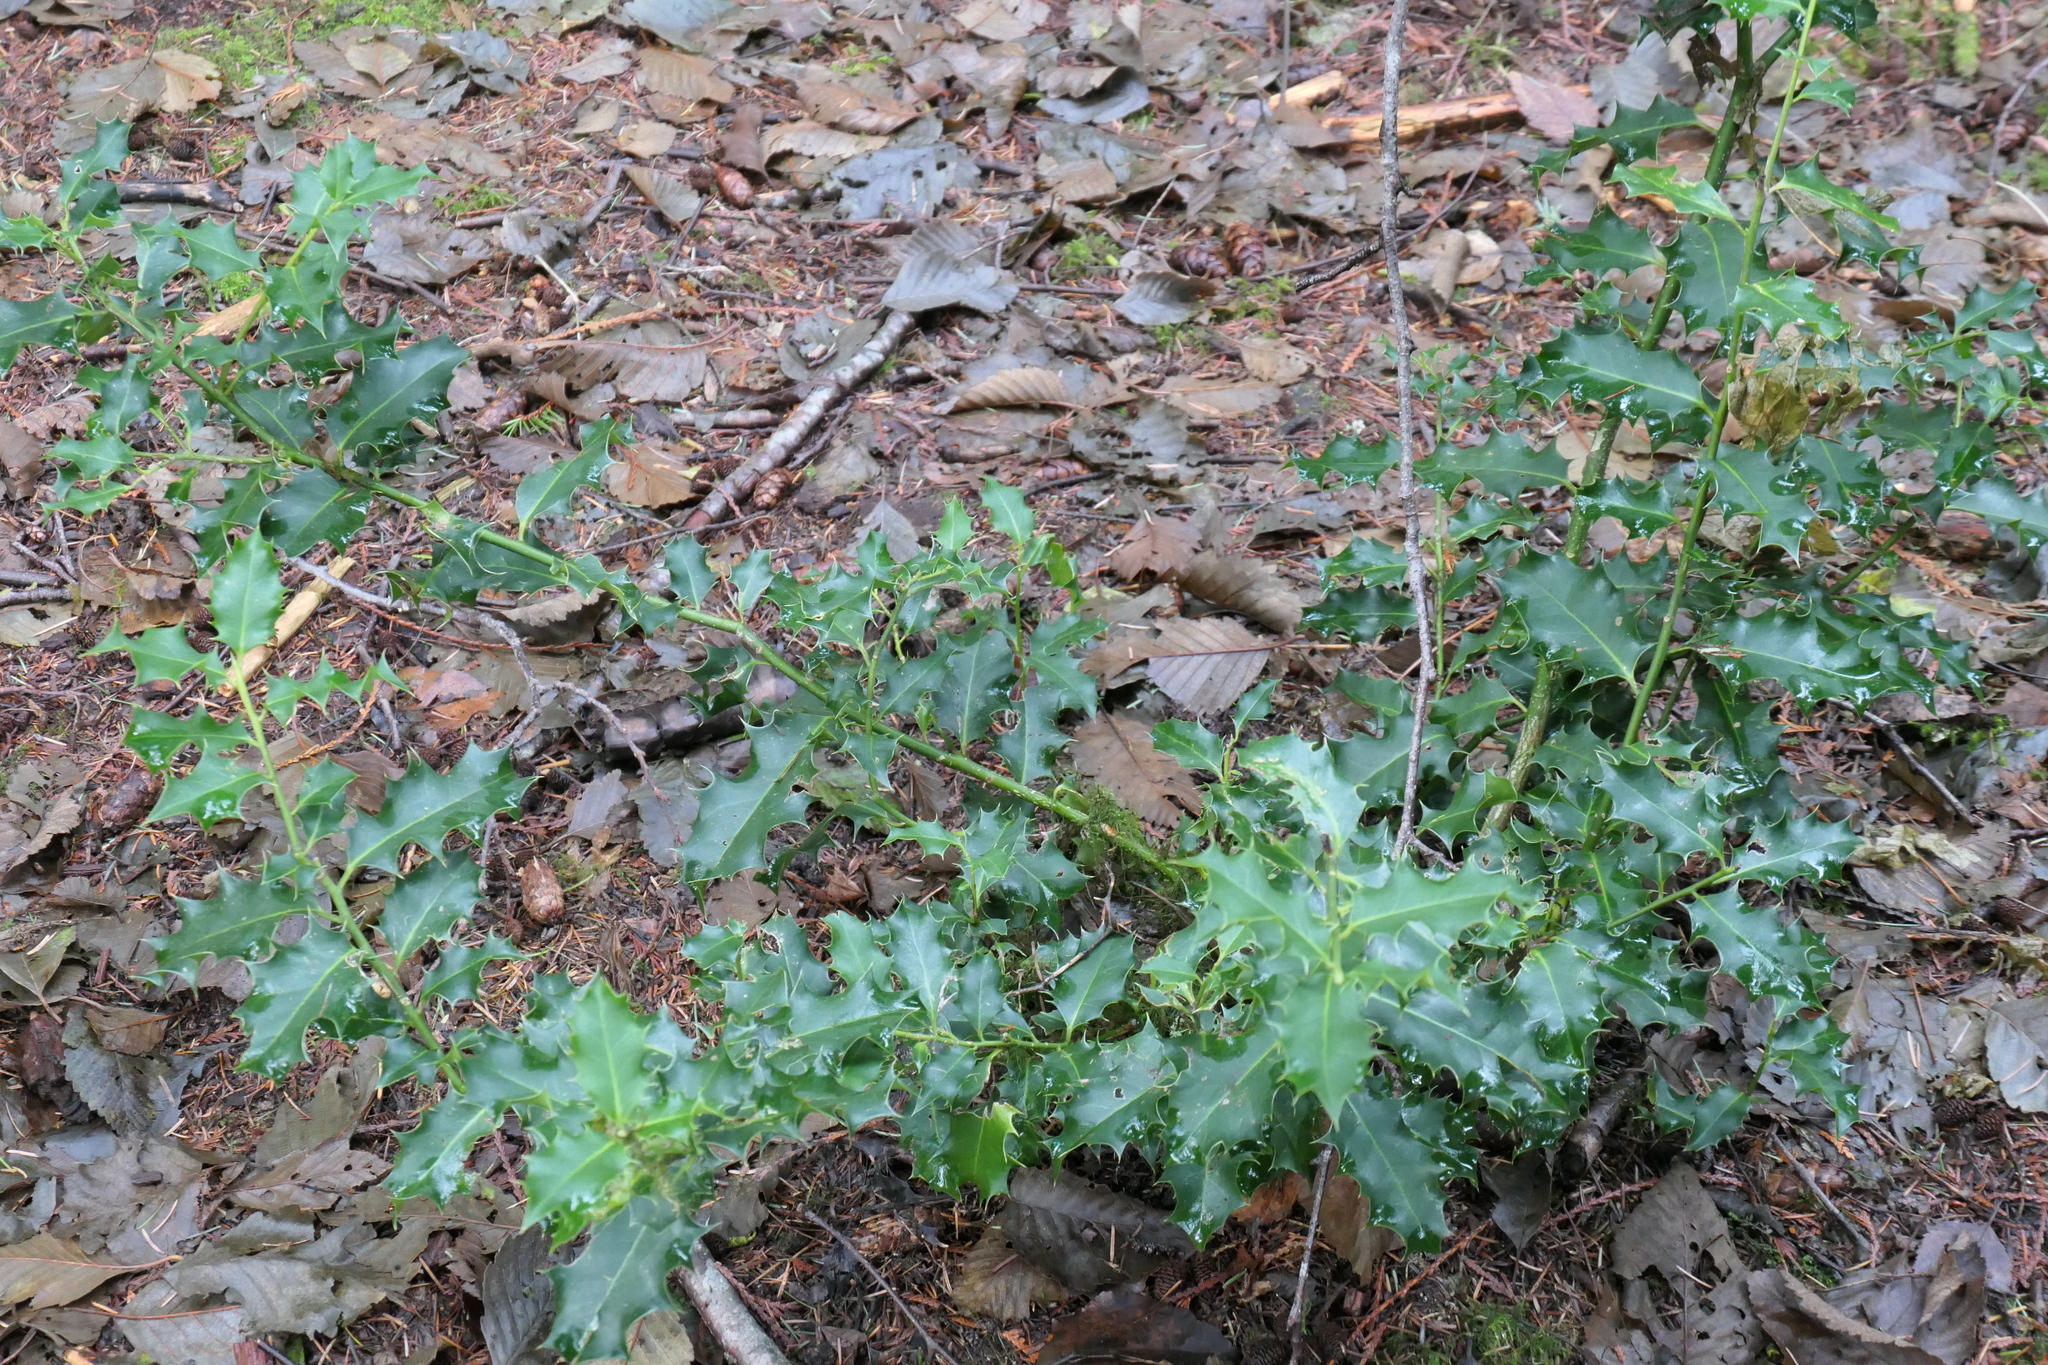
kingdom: Plantae
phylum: Tracheophyta
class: Magnoliopsida
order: Aquifoliales
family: Aquifoliaceae
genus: Ilex
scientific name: Ilex aquifolium
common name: English holly
